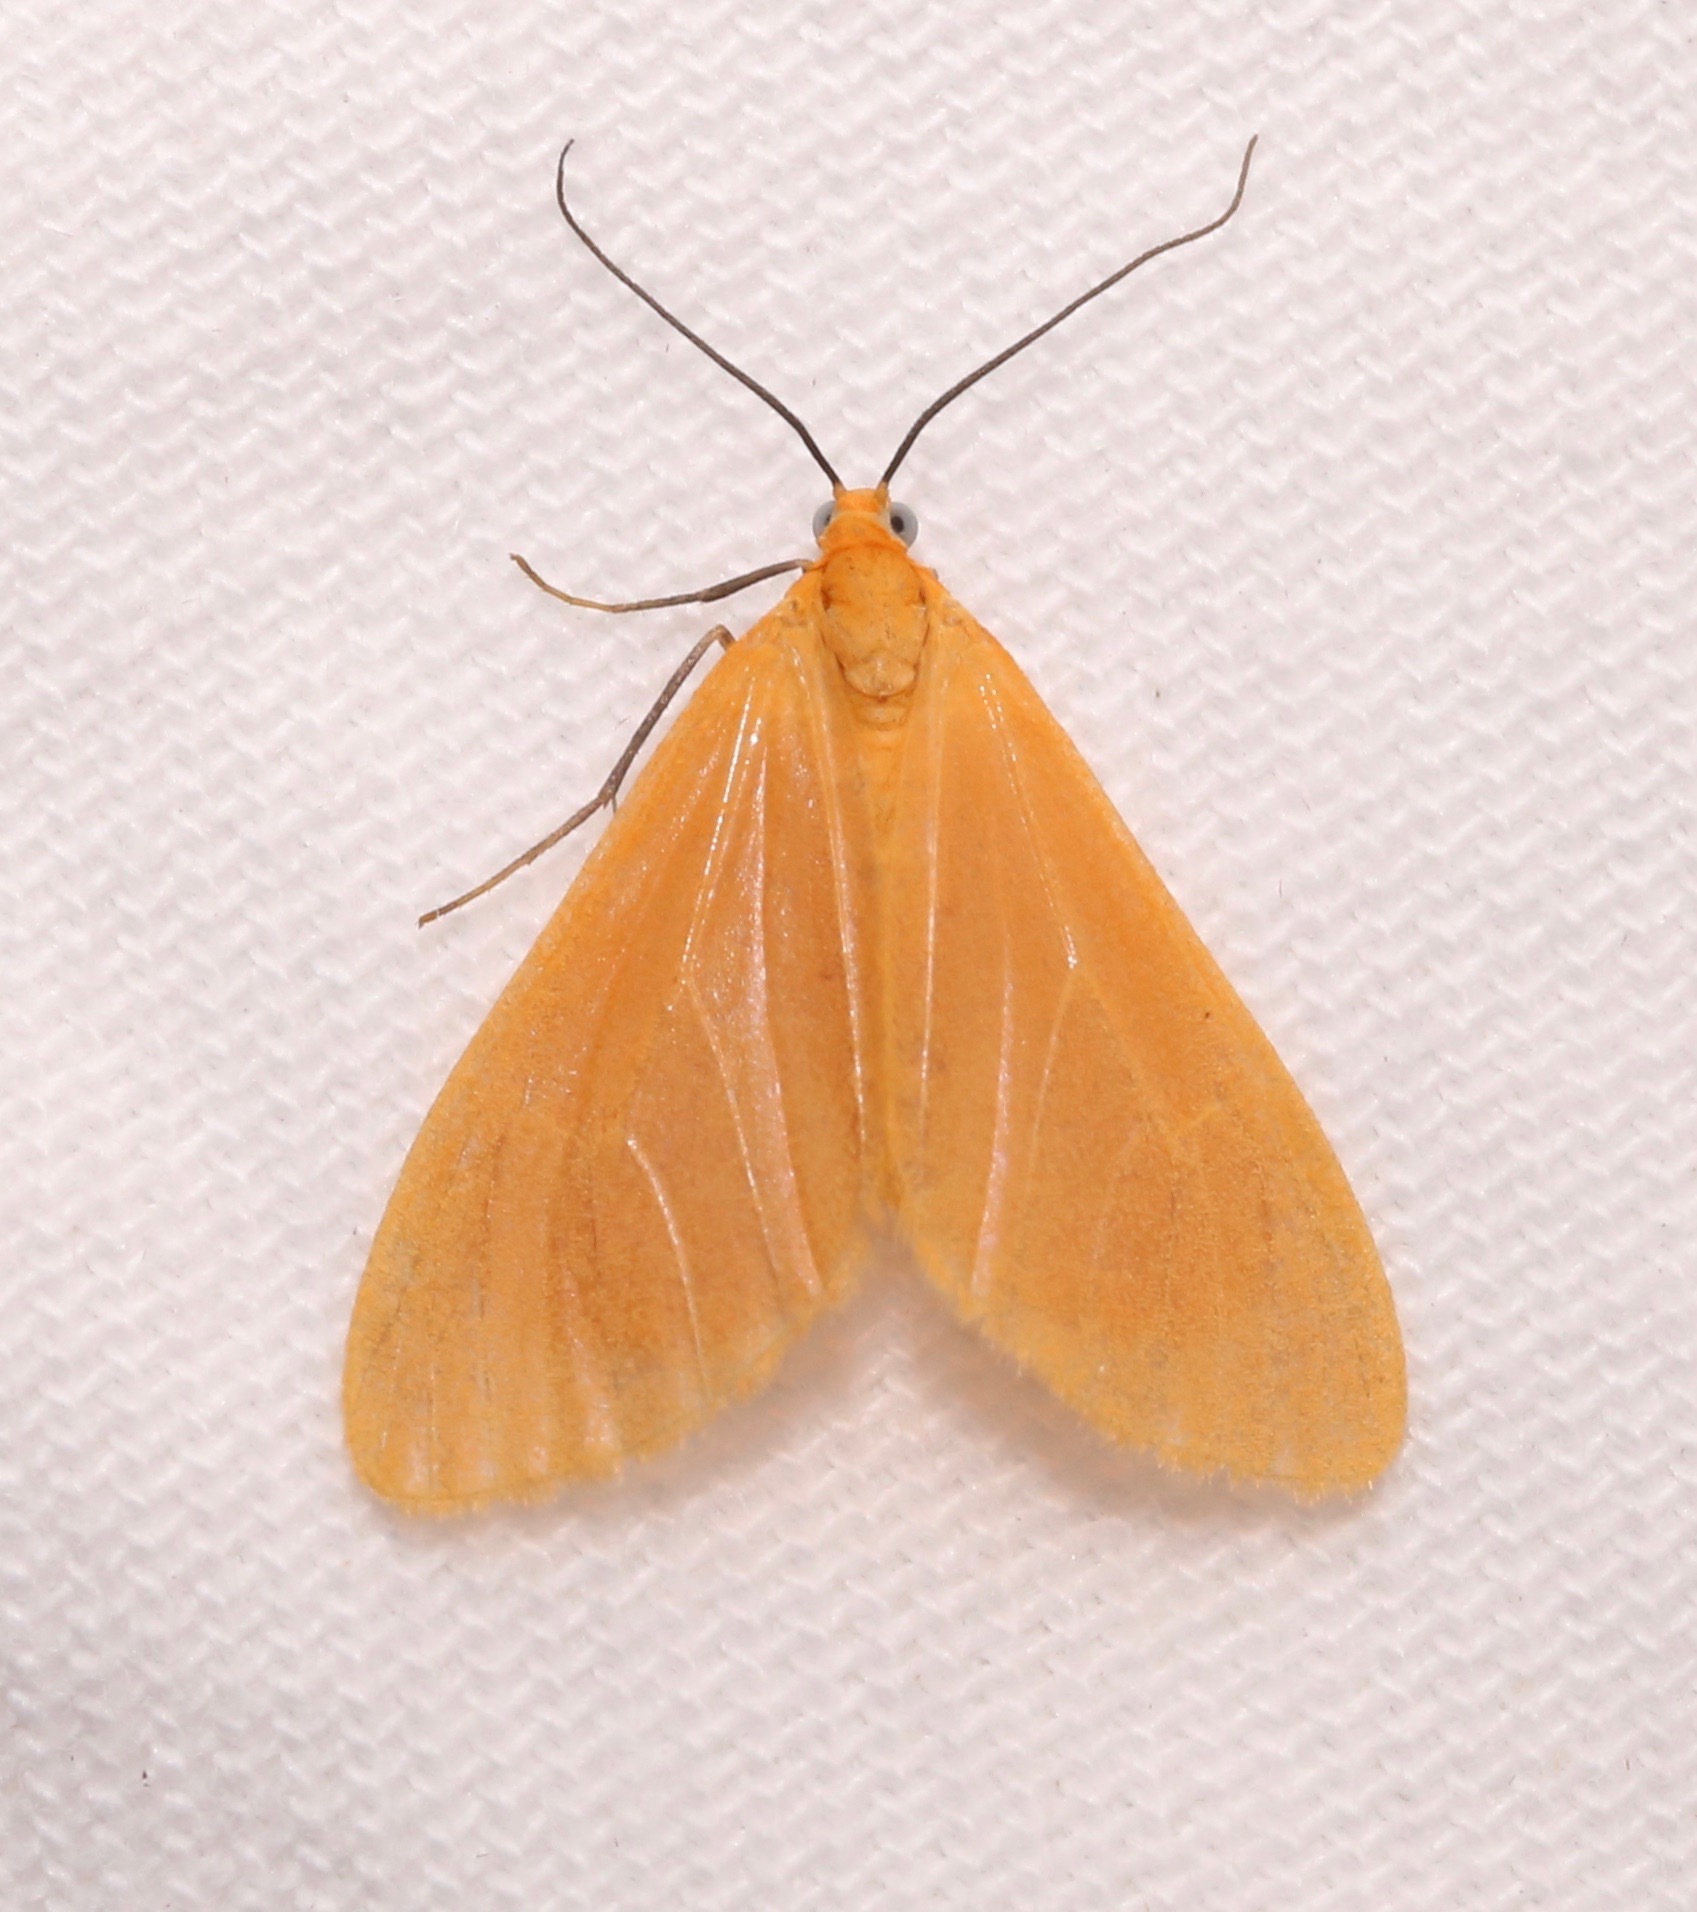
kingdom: Animalia
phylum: Arthropoda
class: Insecta
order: Lepidoptera
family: Geometridae
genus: Eubaphe
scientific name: Eubaphe unicolor
